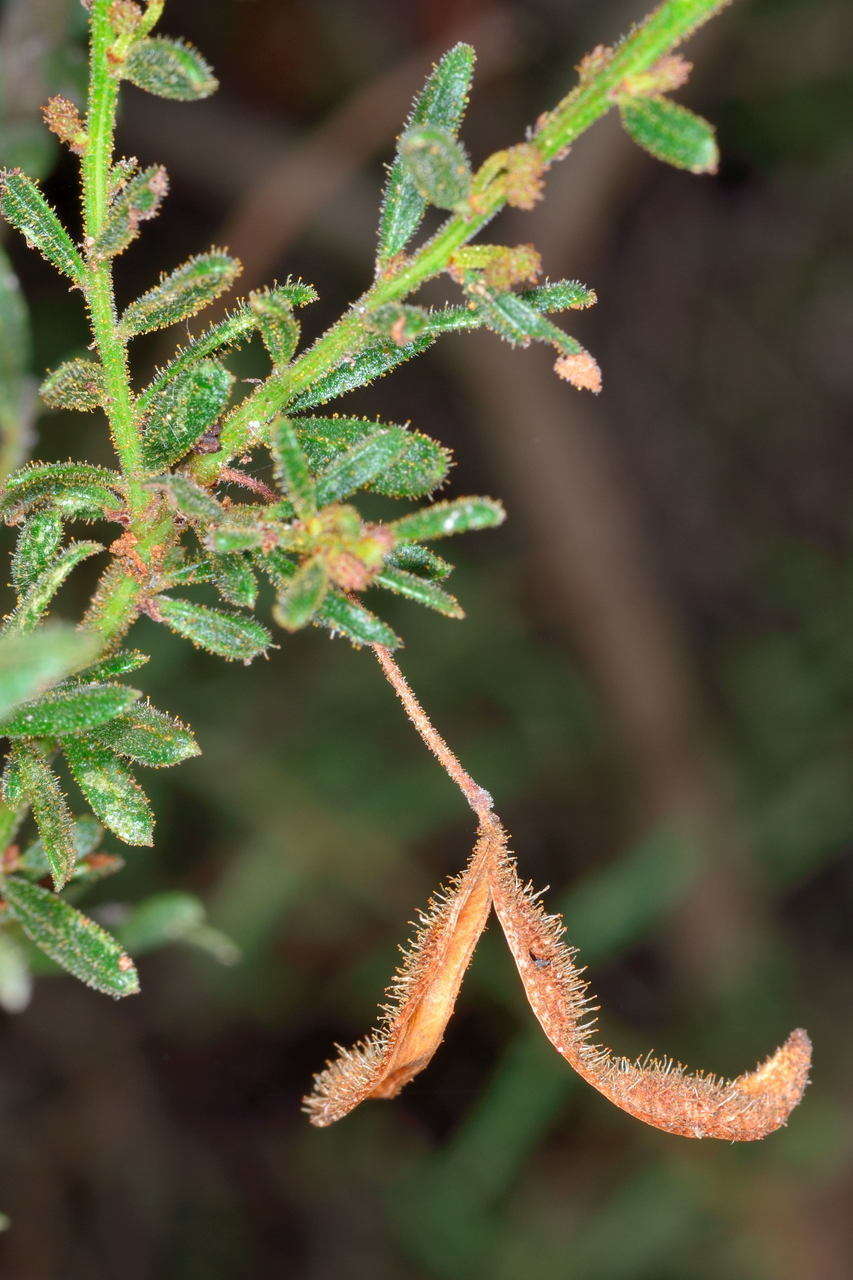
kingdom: Plantae
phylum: Tracheophyta
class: Magnoliopsida
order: Fabales
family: Fabaceae
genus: Acacia
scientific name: Acacia aspera
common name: Rough wattle
